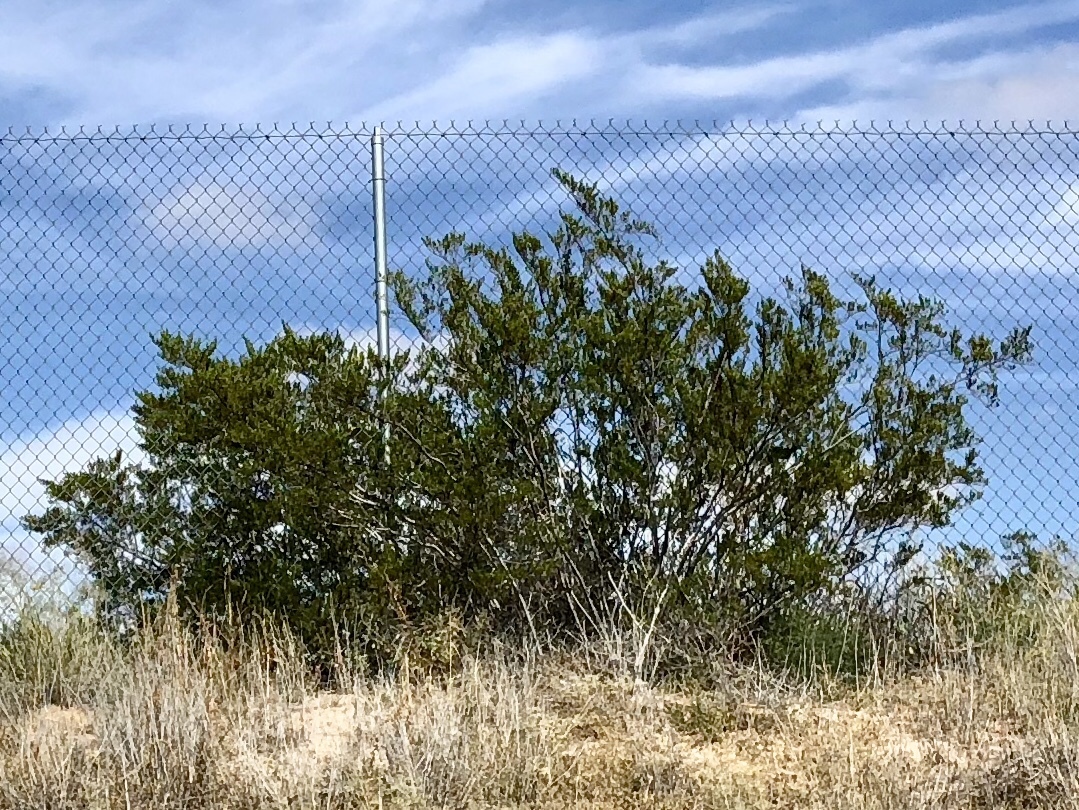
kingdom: Plantae
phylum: Tracheophyta
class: Magnoliopsida
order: Zygophyllales
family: Zygophyllaceae
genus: Larrea
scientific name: Larrea tridentata
